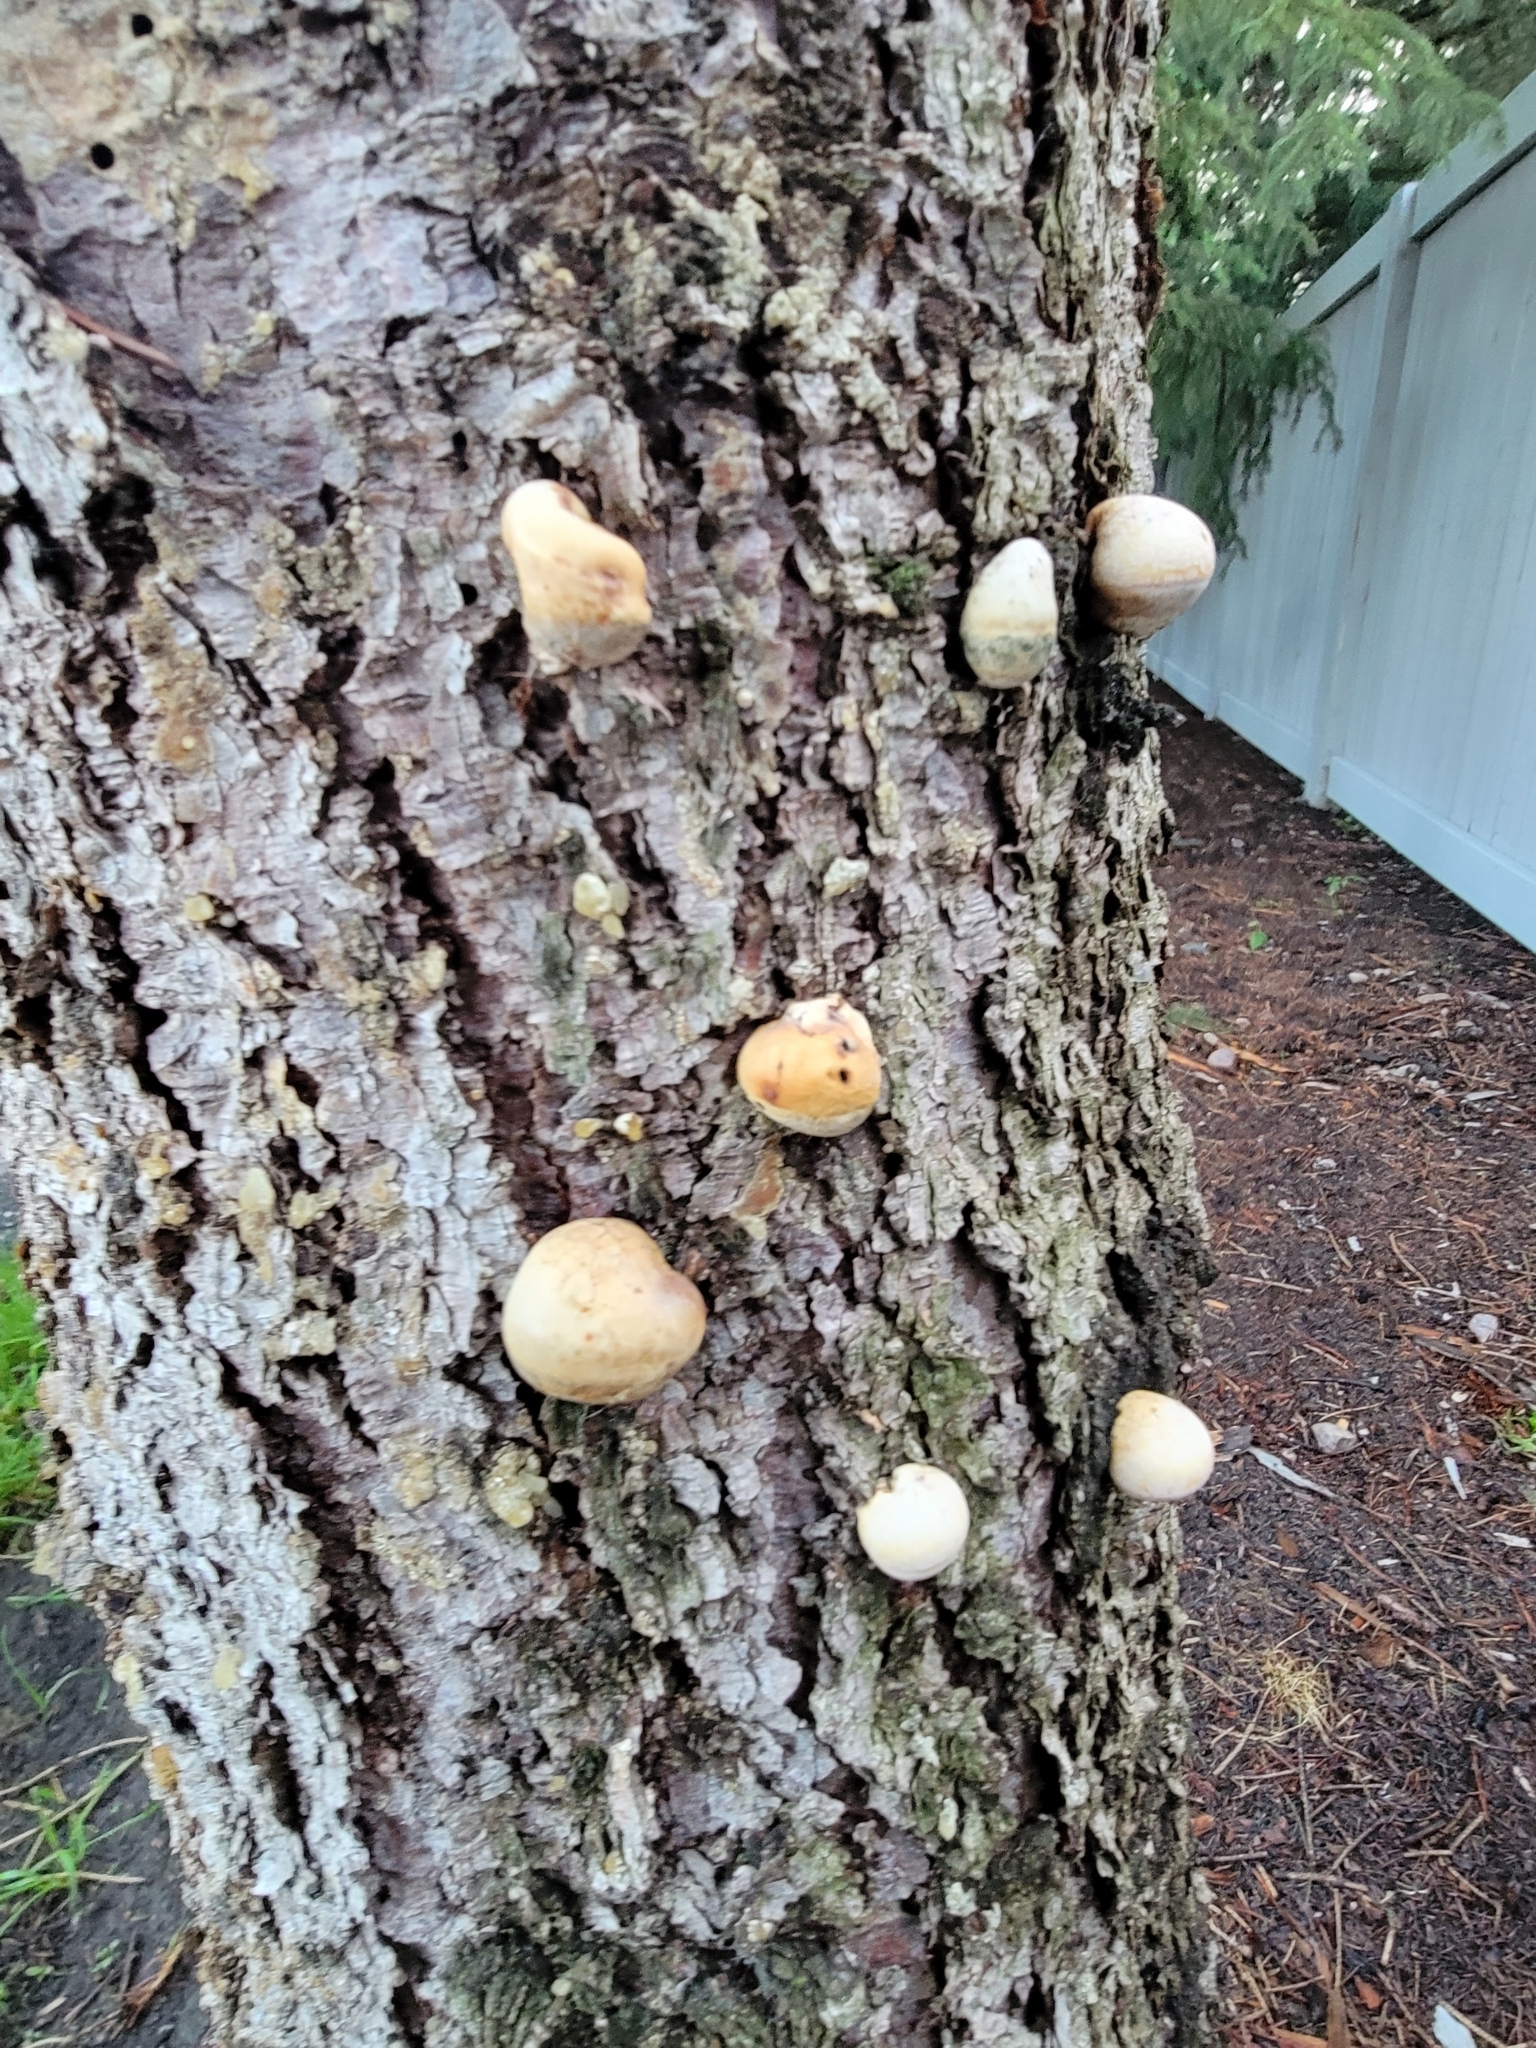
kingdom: Fungi
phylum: Basidiomycota
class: Agaricomycetes
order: Polyporales
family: Polyporaceae
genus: Cryptoporus
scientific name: Cryptoporus volvatus
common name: Veiled polypore
